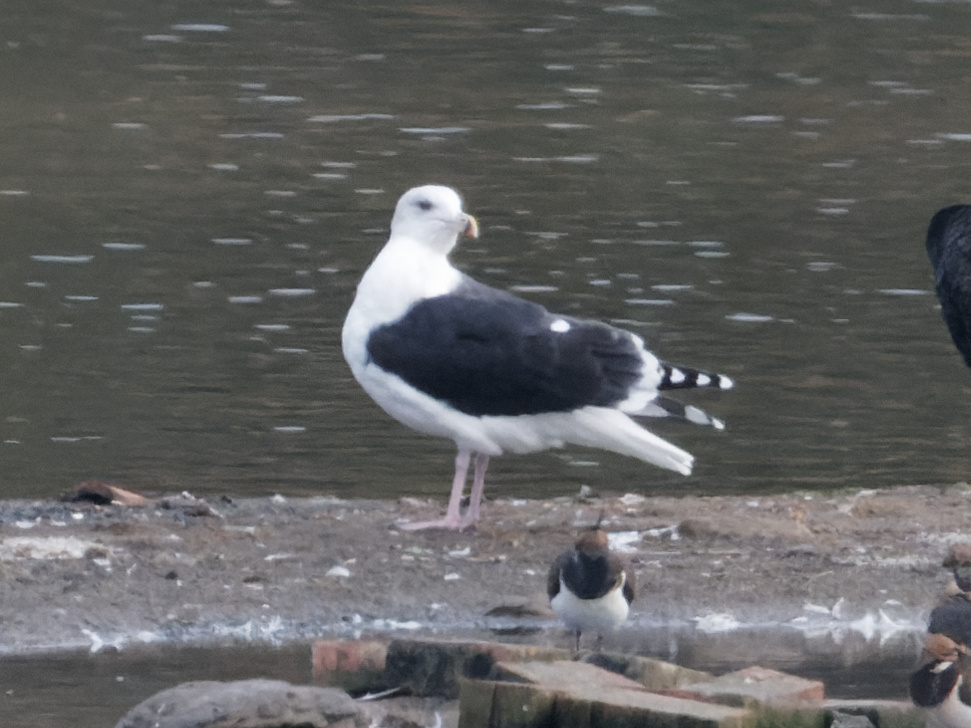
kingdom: Animalia
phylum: Chordata
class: Aves
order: Charadriiformes
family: Laridae
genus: Larus
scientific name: Larus marinus
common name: Great black-backed gull
